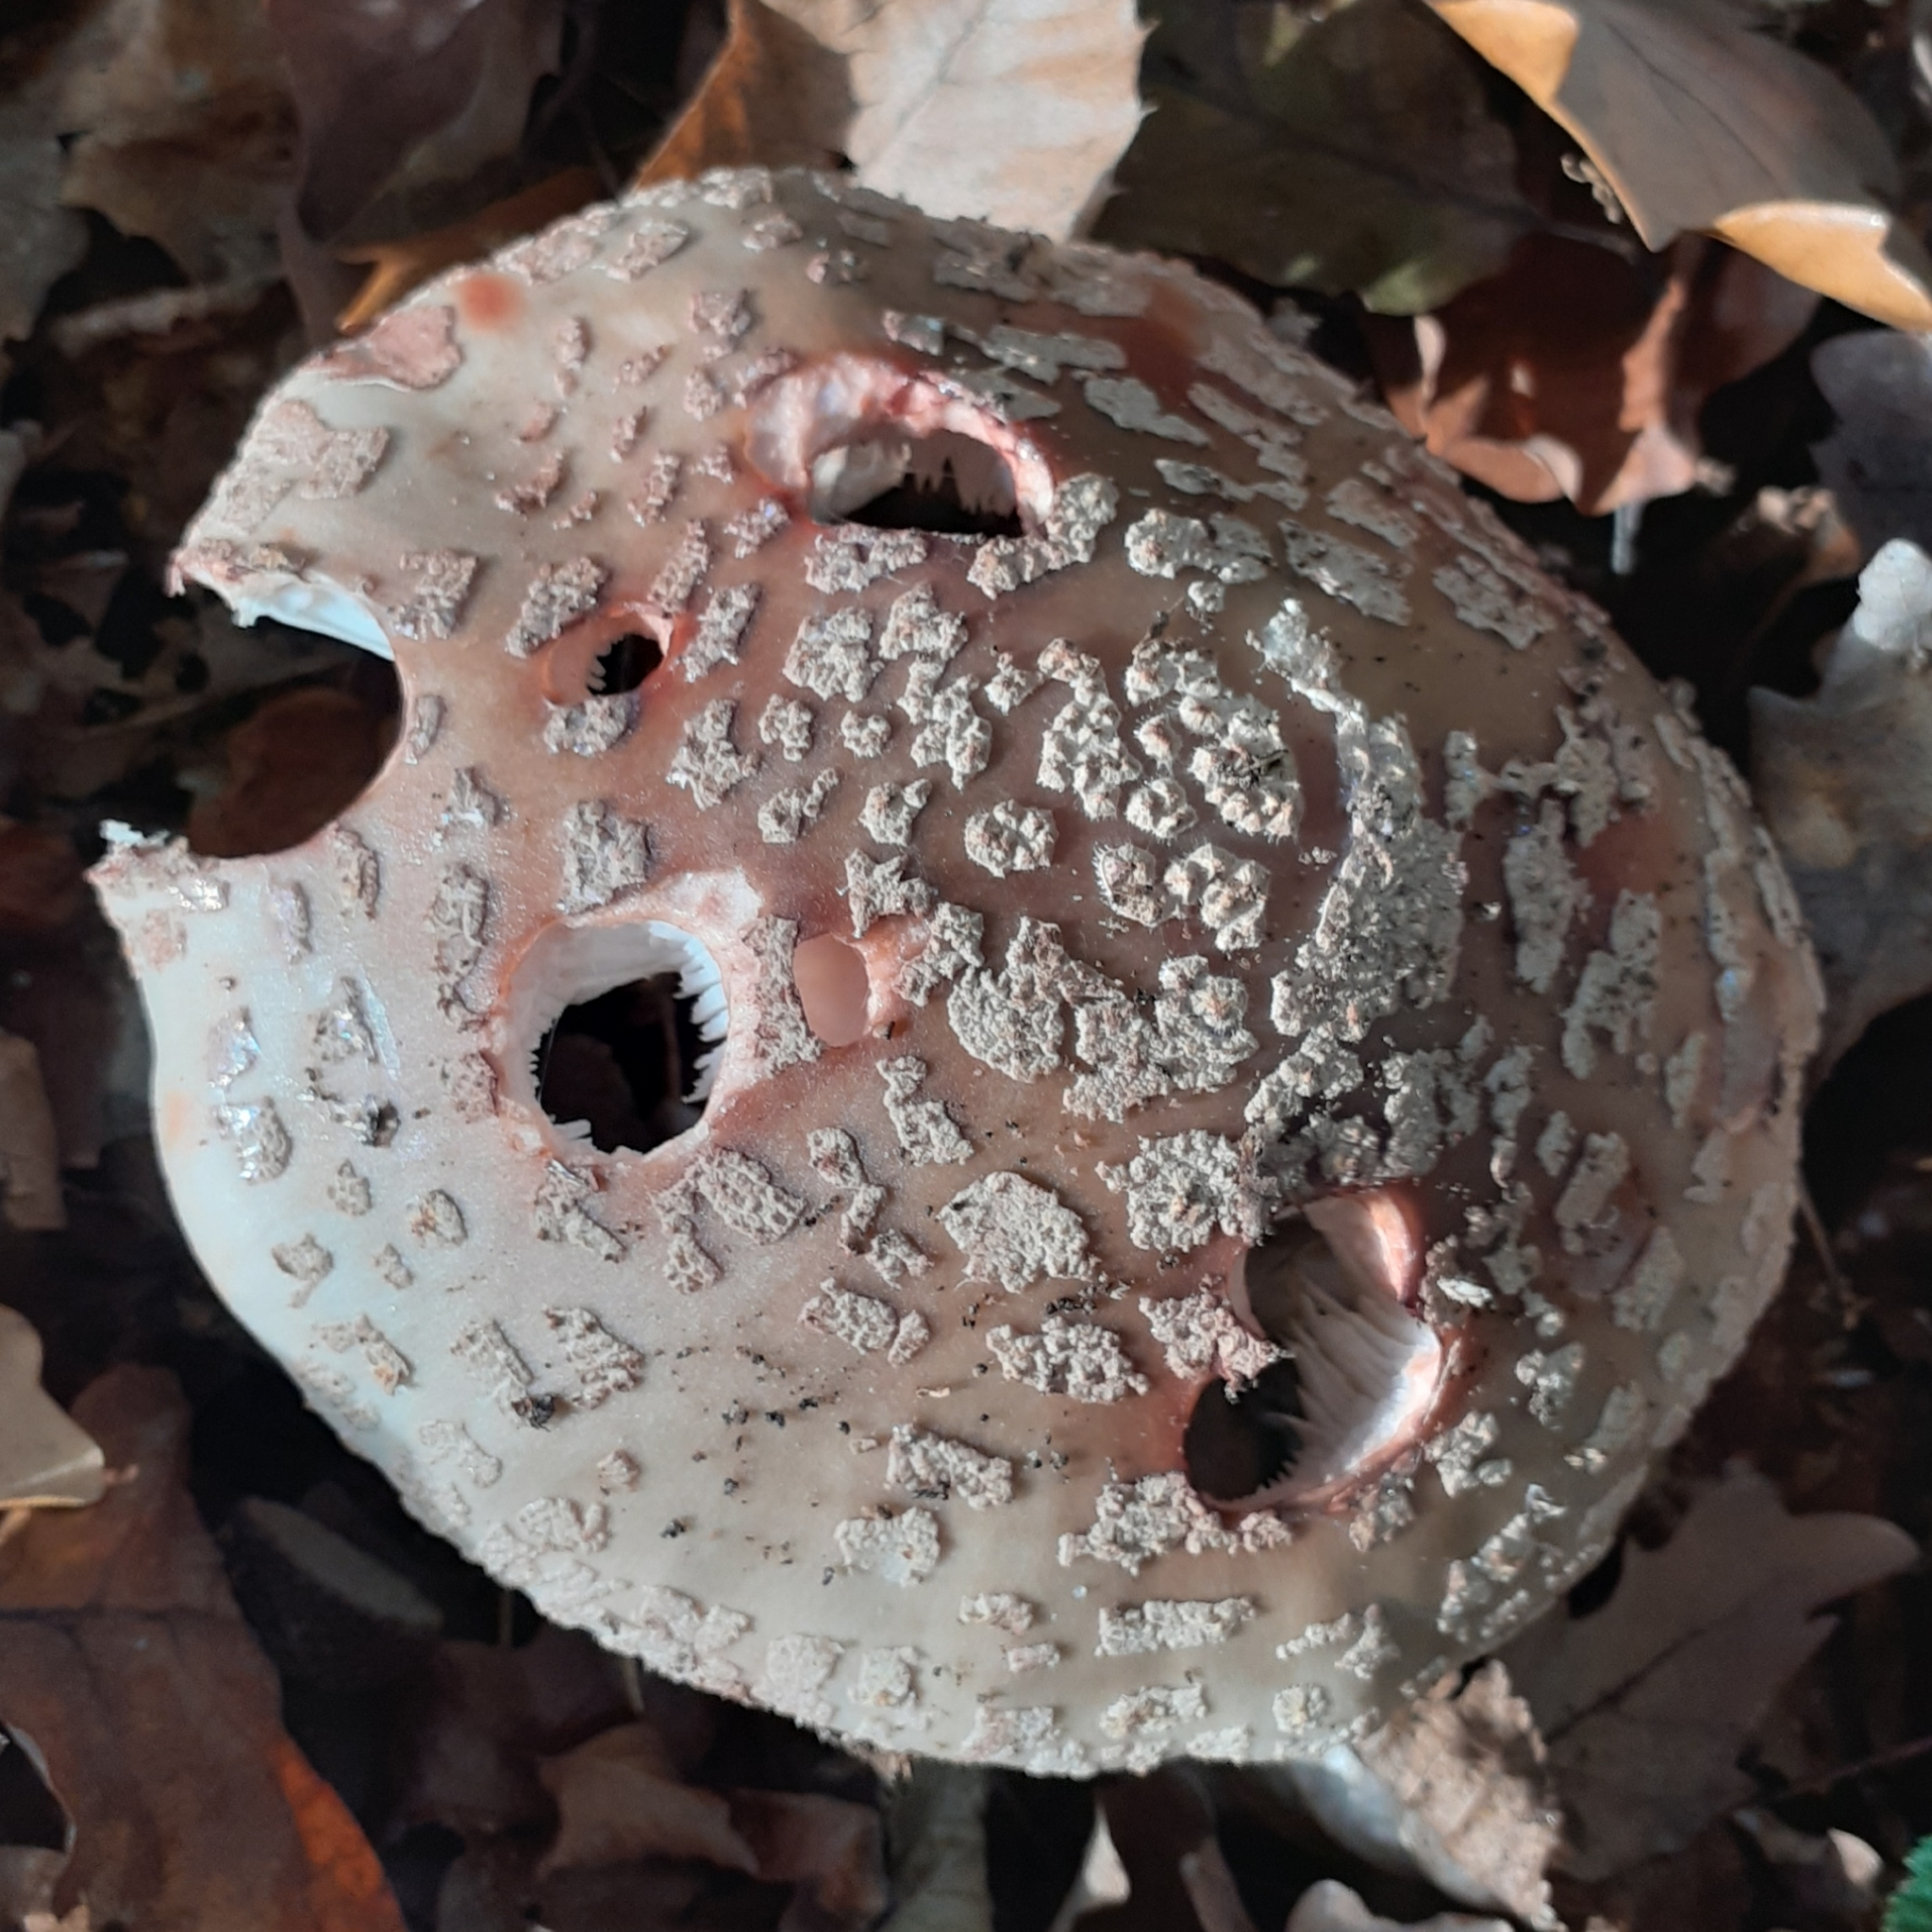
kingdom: Fungi
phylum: Basidiomycota
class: Agaricomycetes
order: Agaricales
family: Amanitaceae
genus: Amanita
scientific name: Amanita rubescens
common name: Blusher
